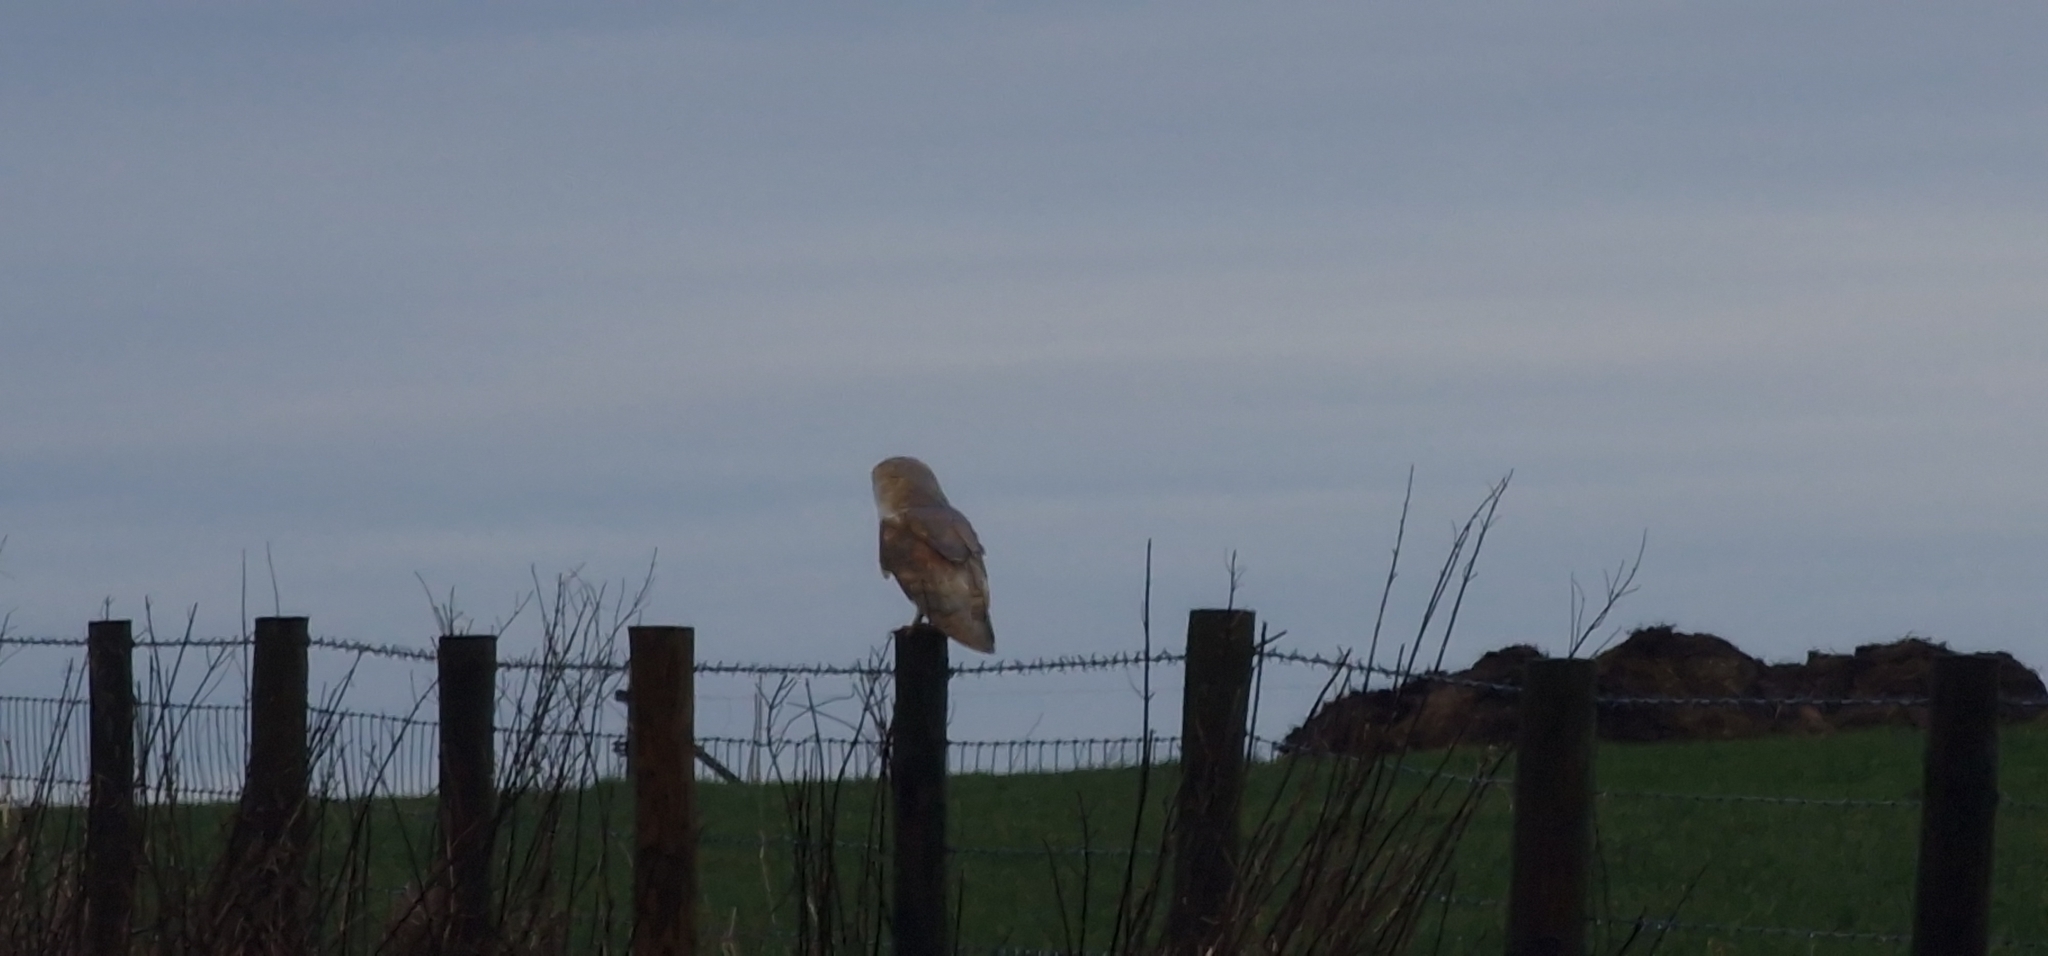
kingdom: Animalia
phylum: Chordata
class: Aves
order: Strigiformes
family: Tytonidae
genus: Tyto
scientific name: Tyto alba
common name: Barn owl
